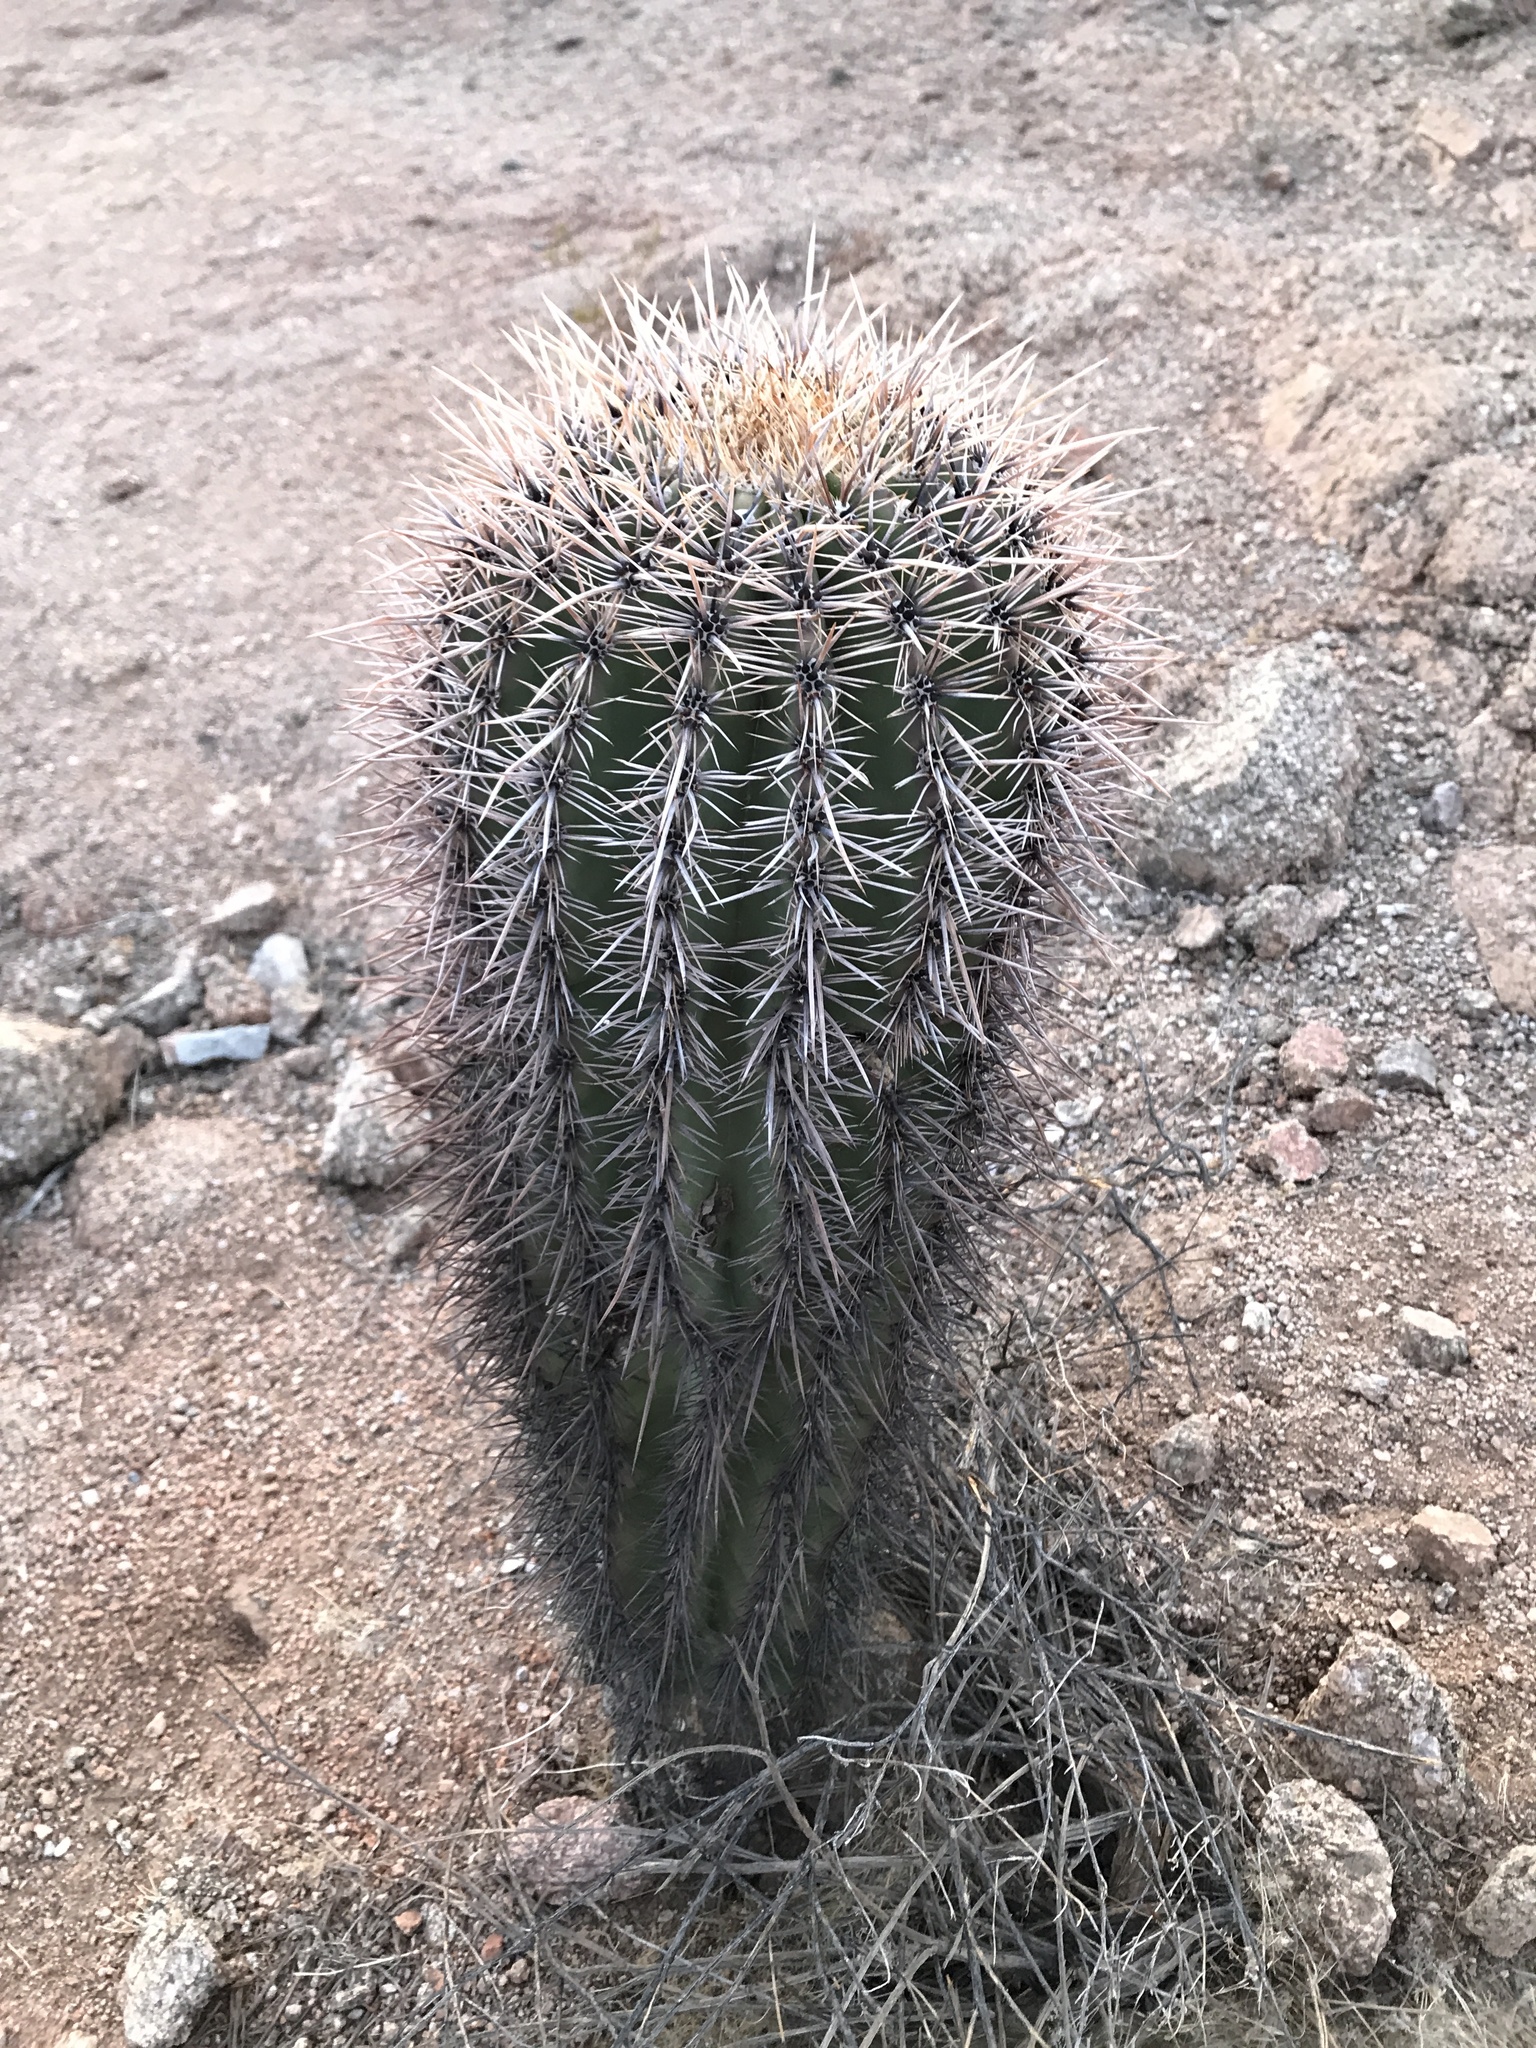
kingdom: Plantae
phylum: Tracheophyta
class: Magnoliopsida
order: Caryophyllales
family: Cactaceae
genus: Carnegiea
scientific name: Carnegiea gigantea
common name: Saguaro
